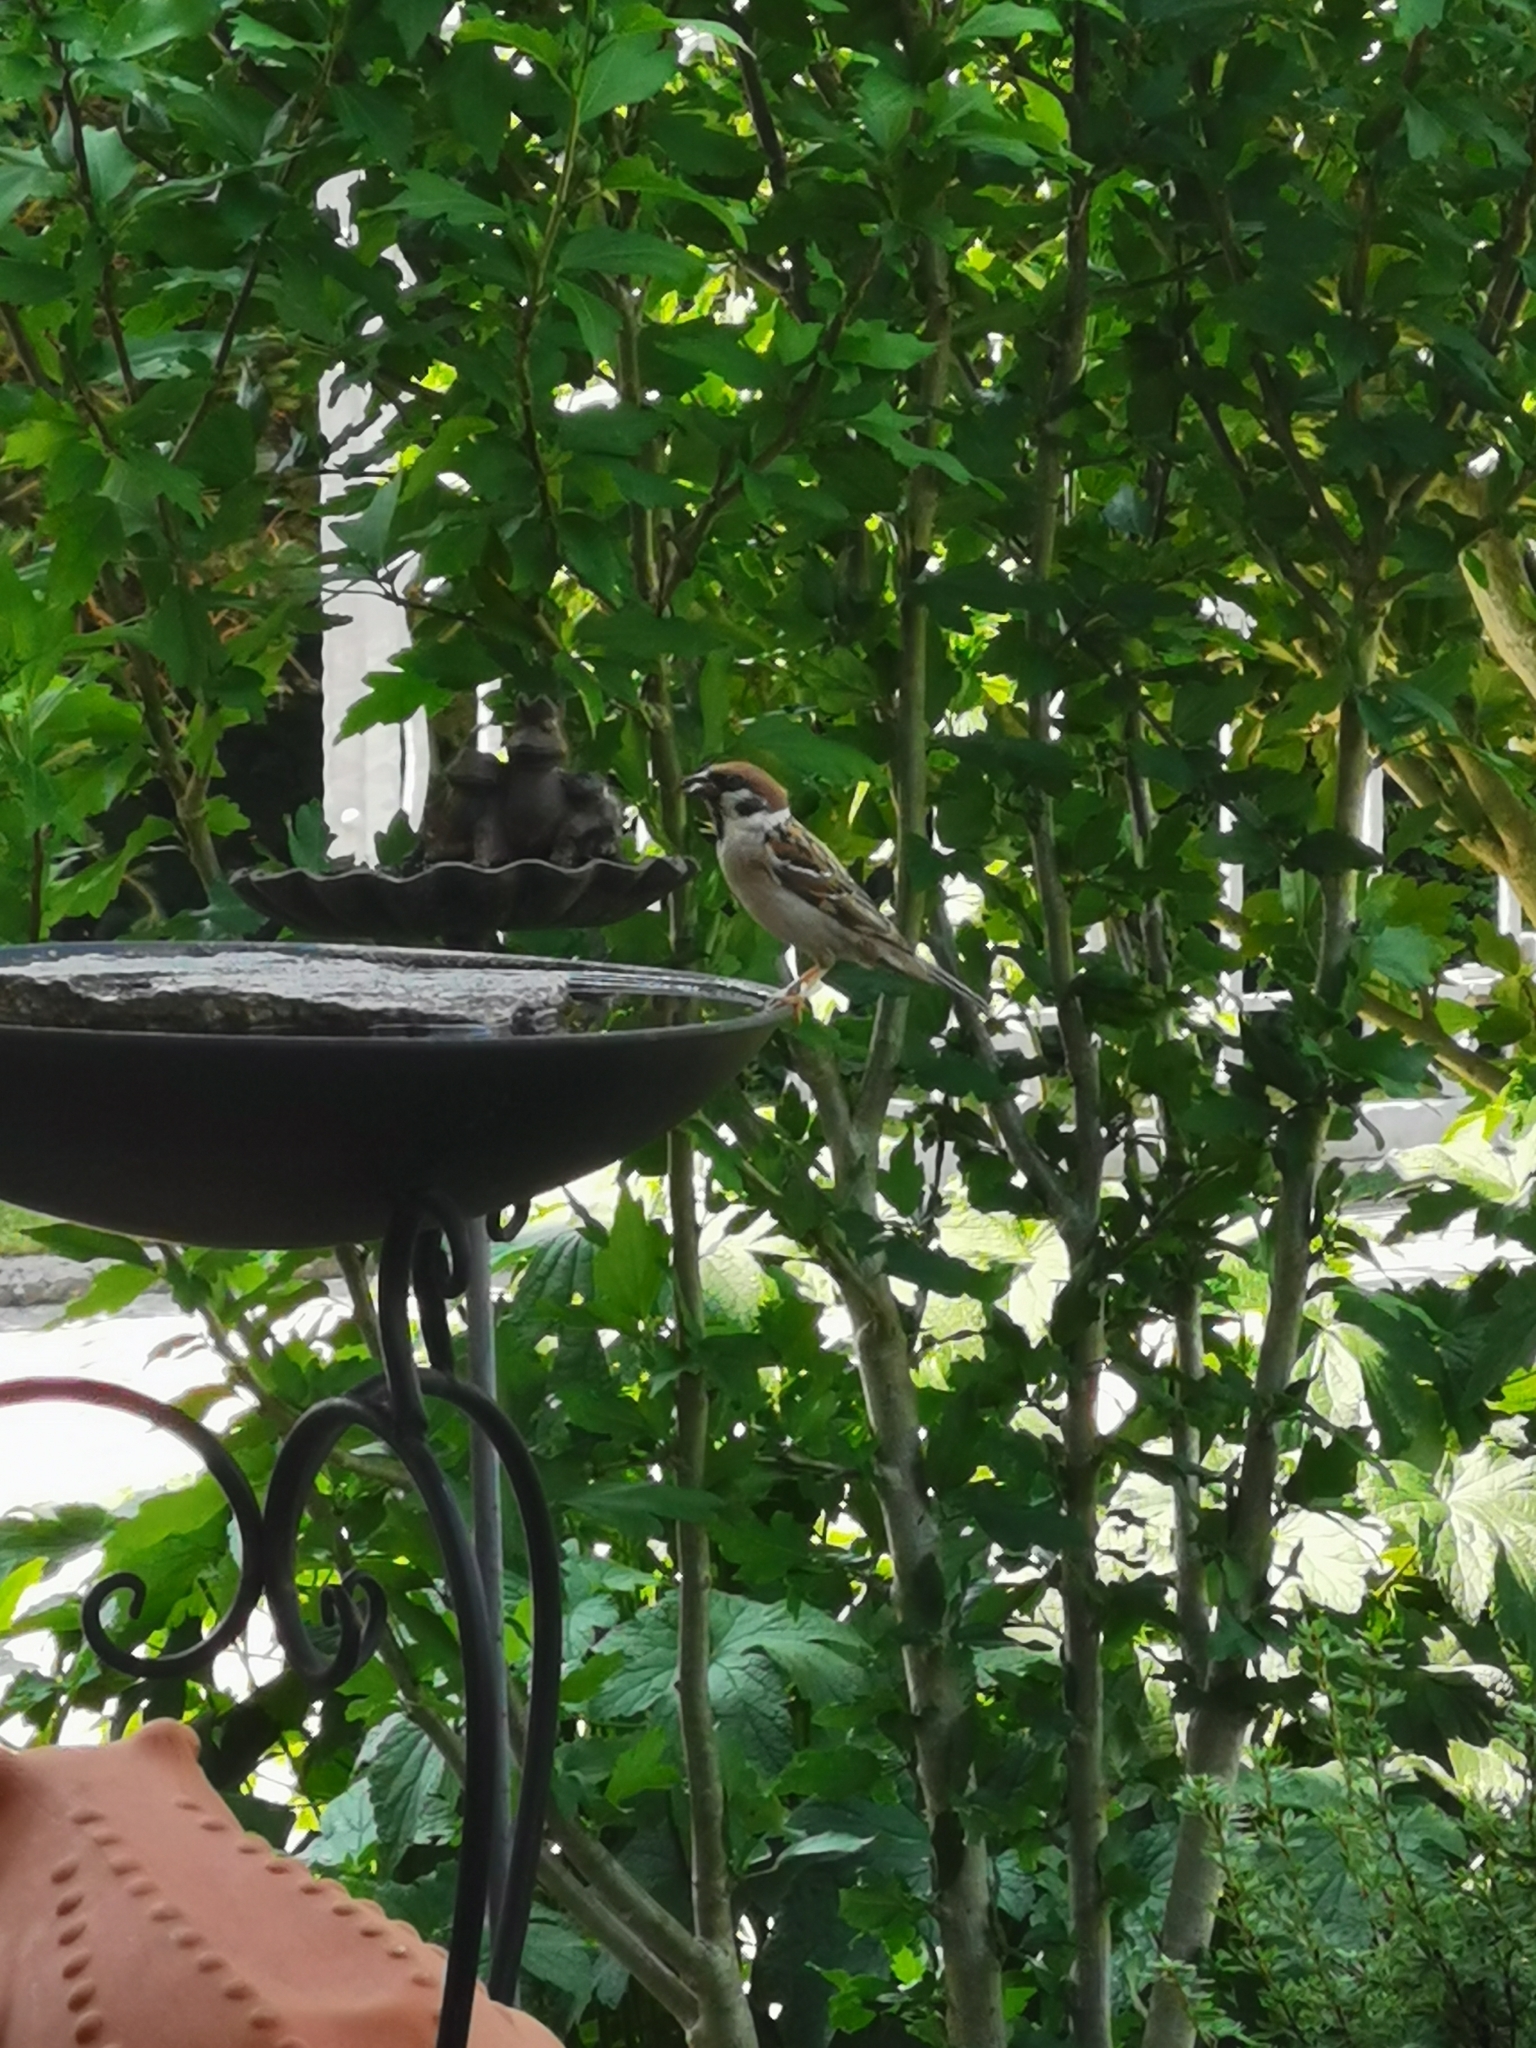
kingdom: Animalia
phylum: Chordata
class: Aves
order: Passeriformes
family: Passeridae
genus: Passer
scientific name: Passer montanus
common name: Eurasian tree sparrow
